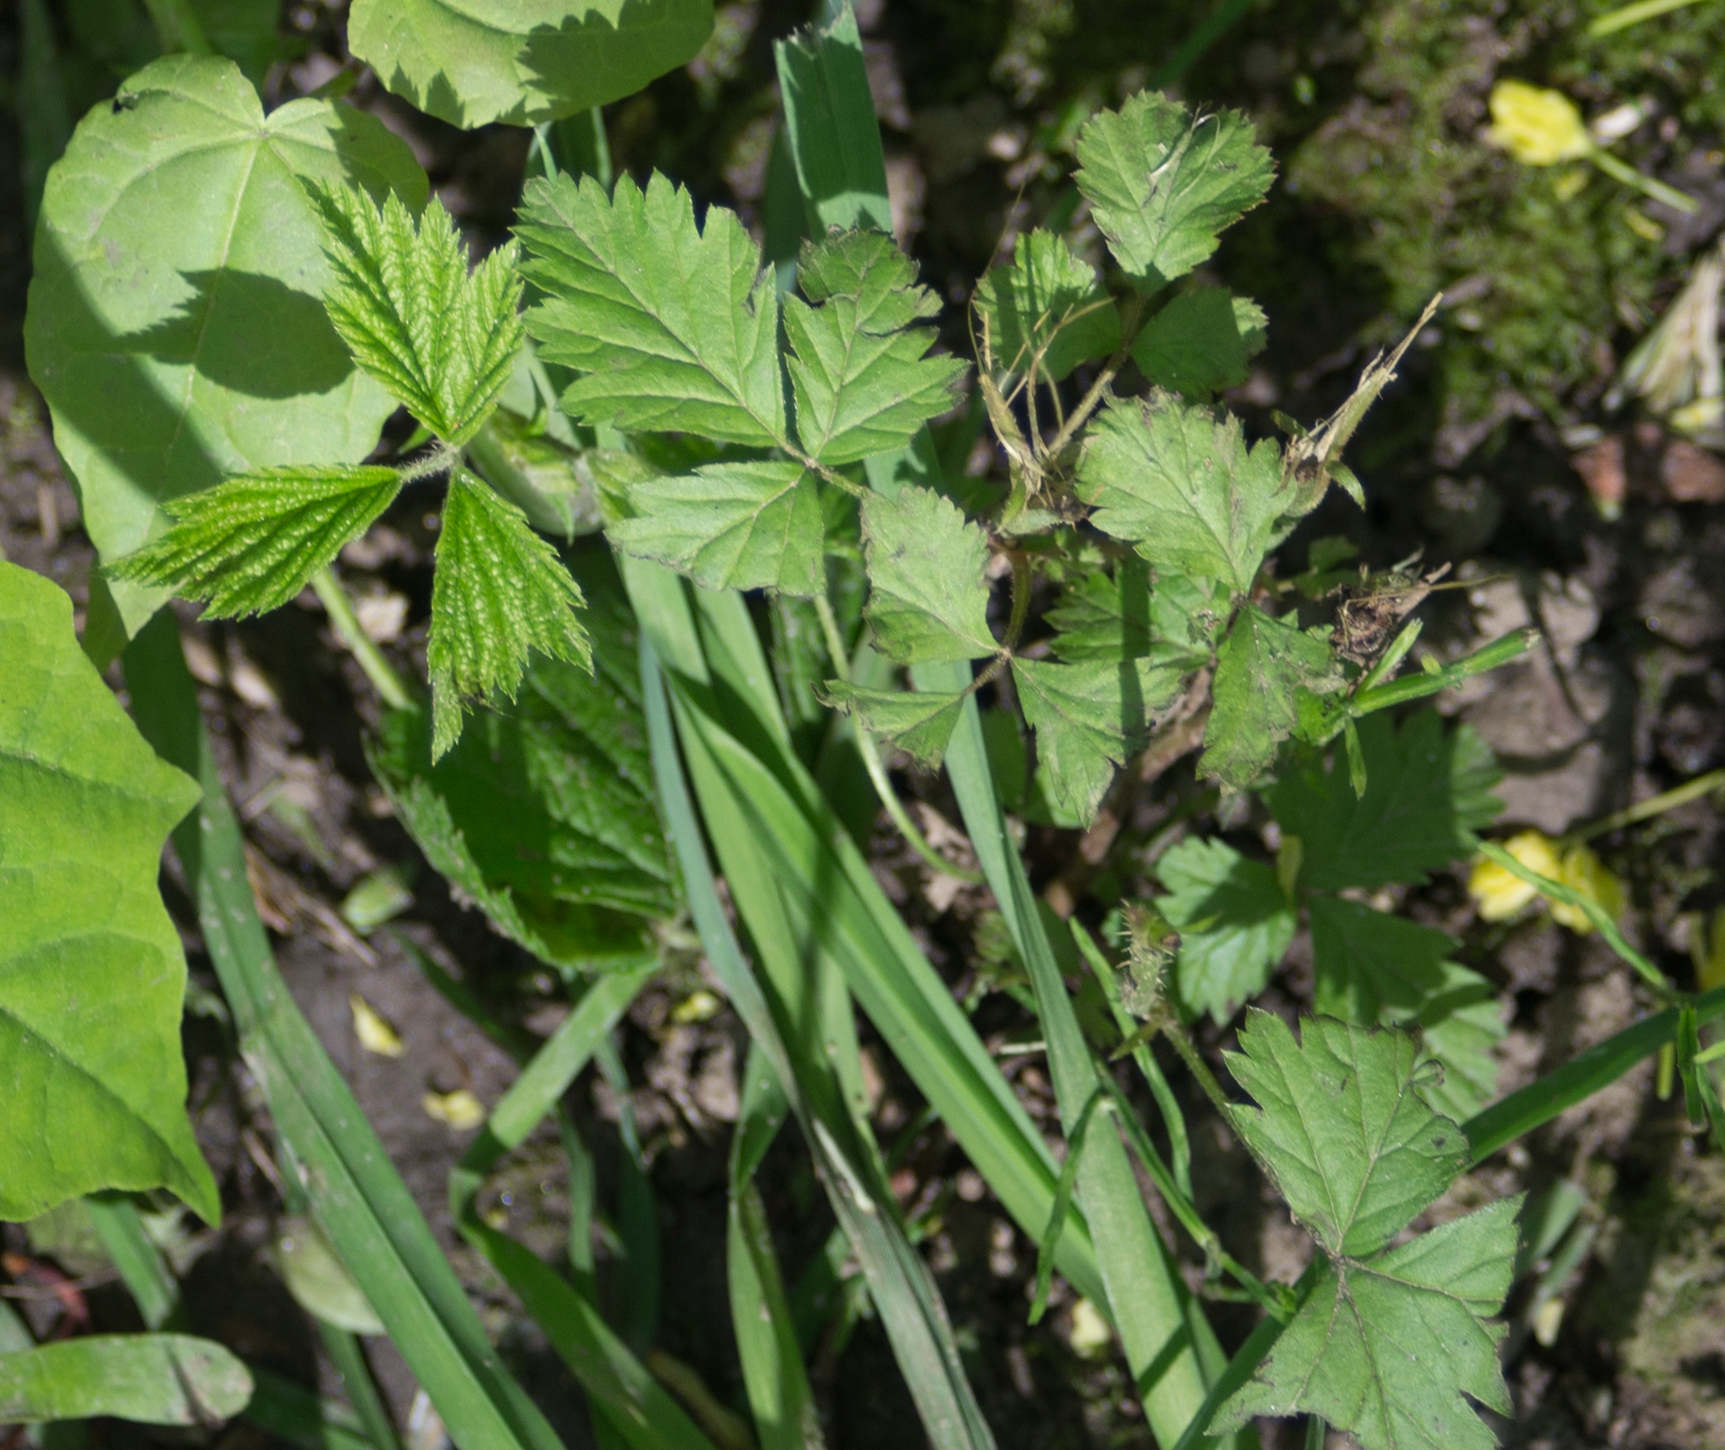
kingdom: Plantae
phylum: Tracheophyta
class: Magnoliopsida
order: Rosales
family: Rosaceae
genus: Rubus
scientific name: Rubus caesius
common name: Dewberry
